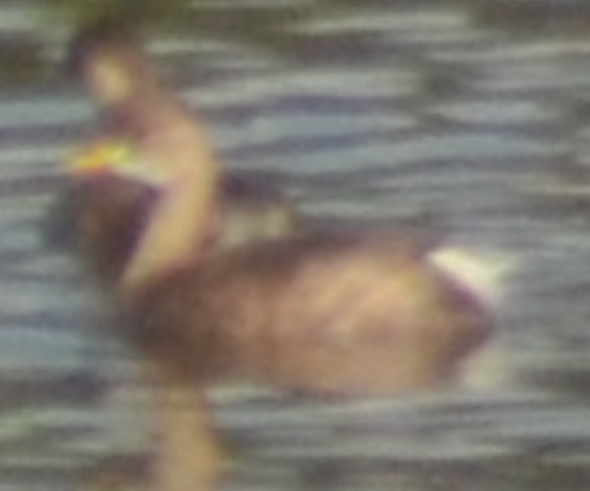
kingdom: Animalia
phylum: Chordata
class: Aves
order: Podicipediformes
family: Podicipedidae
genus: Tachybaptus
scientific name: Tachybaptus ruficollis
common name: Little grebe
